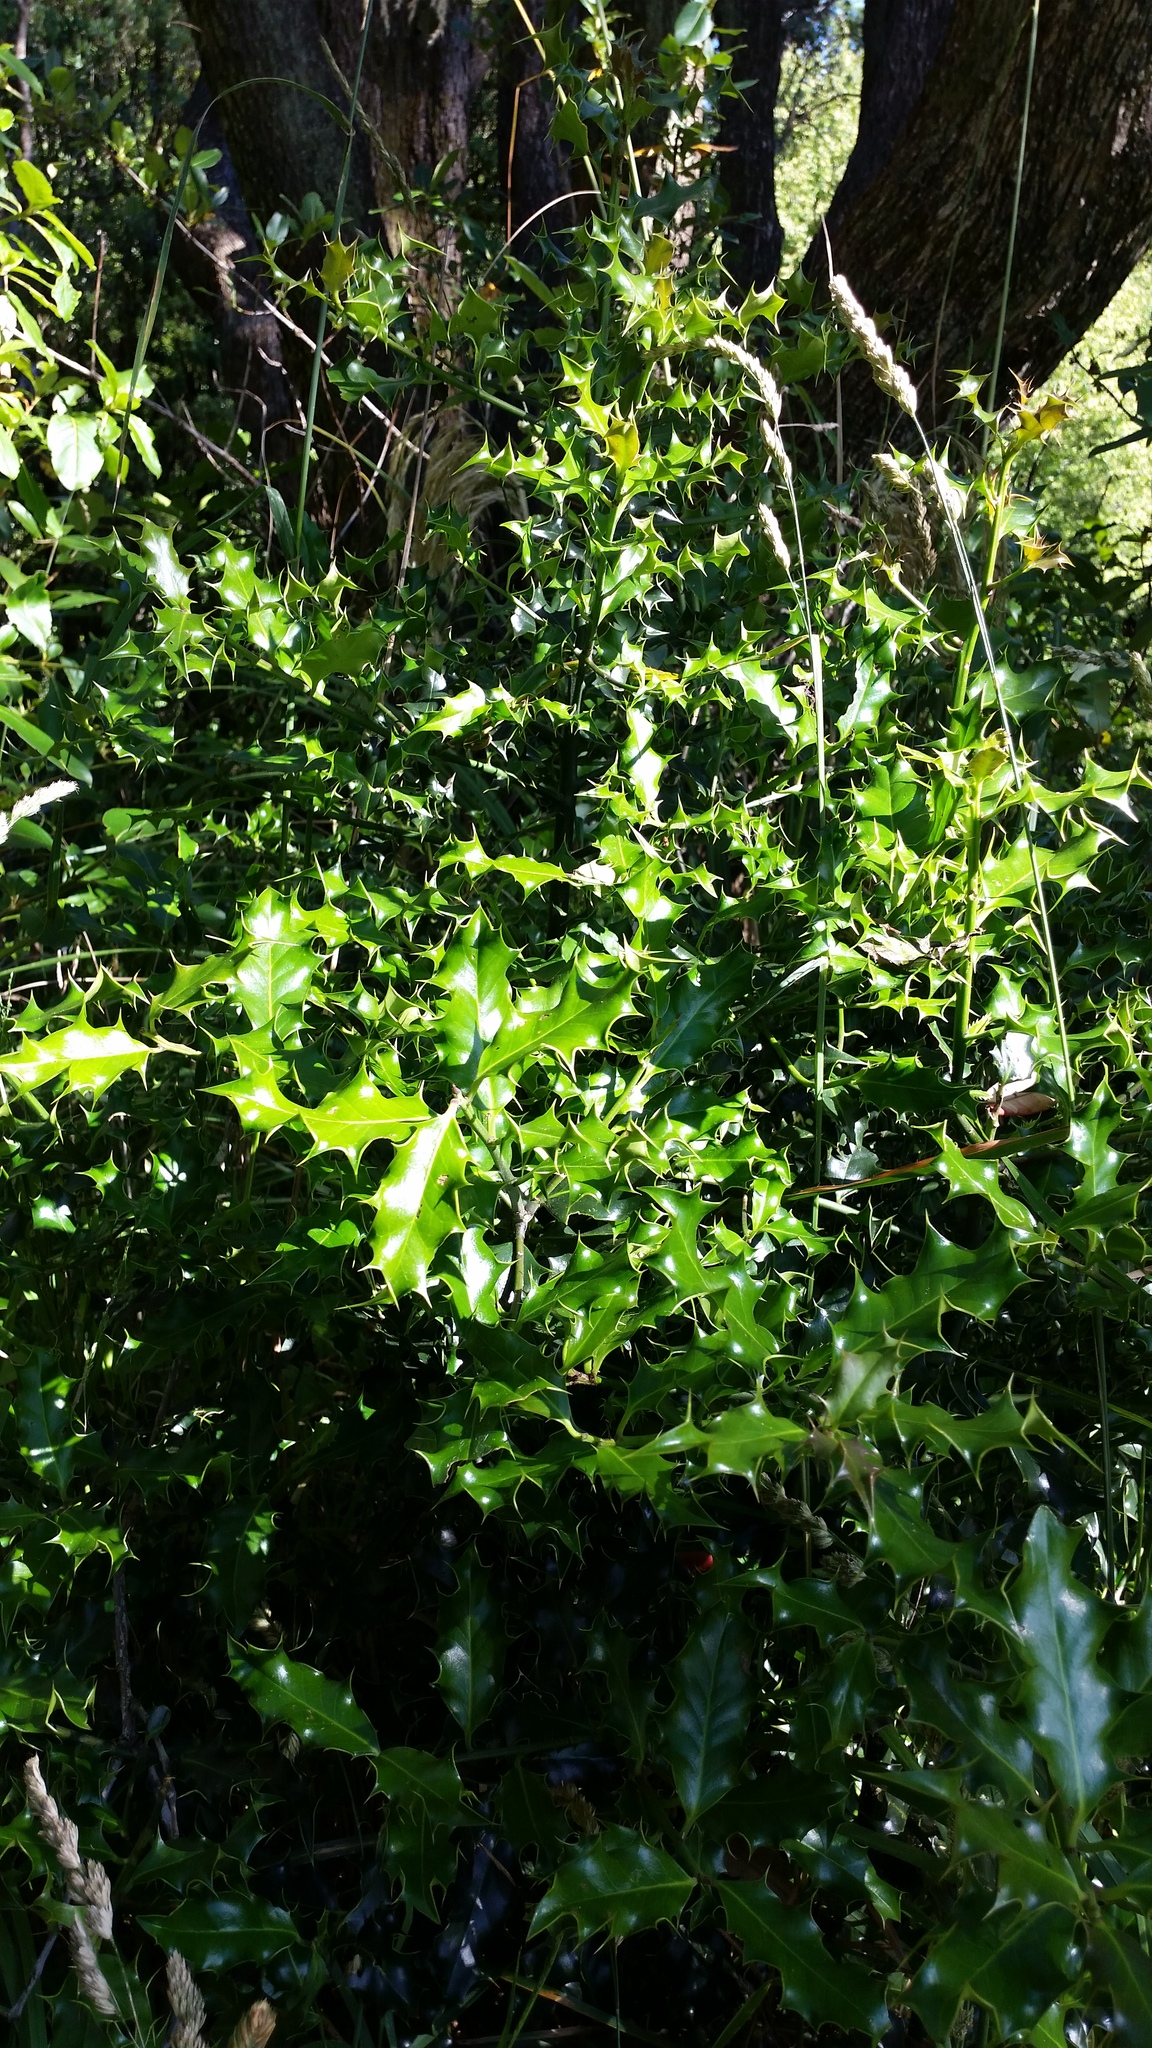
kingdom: Plantae
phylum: Tracheophyta
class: Magnoliopsida
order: Aquifoliales
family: Aquifoliaceae
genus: Ilex
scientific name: Ilex aquifolium
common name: English holly
